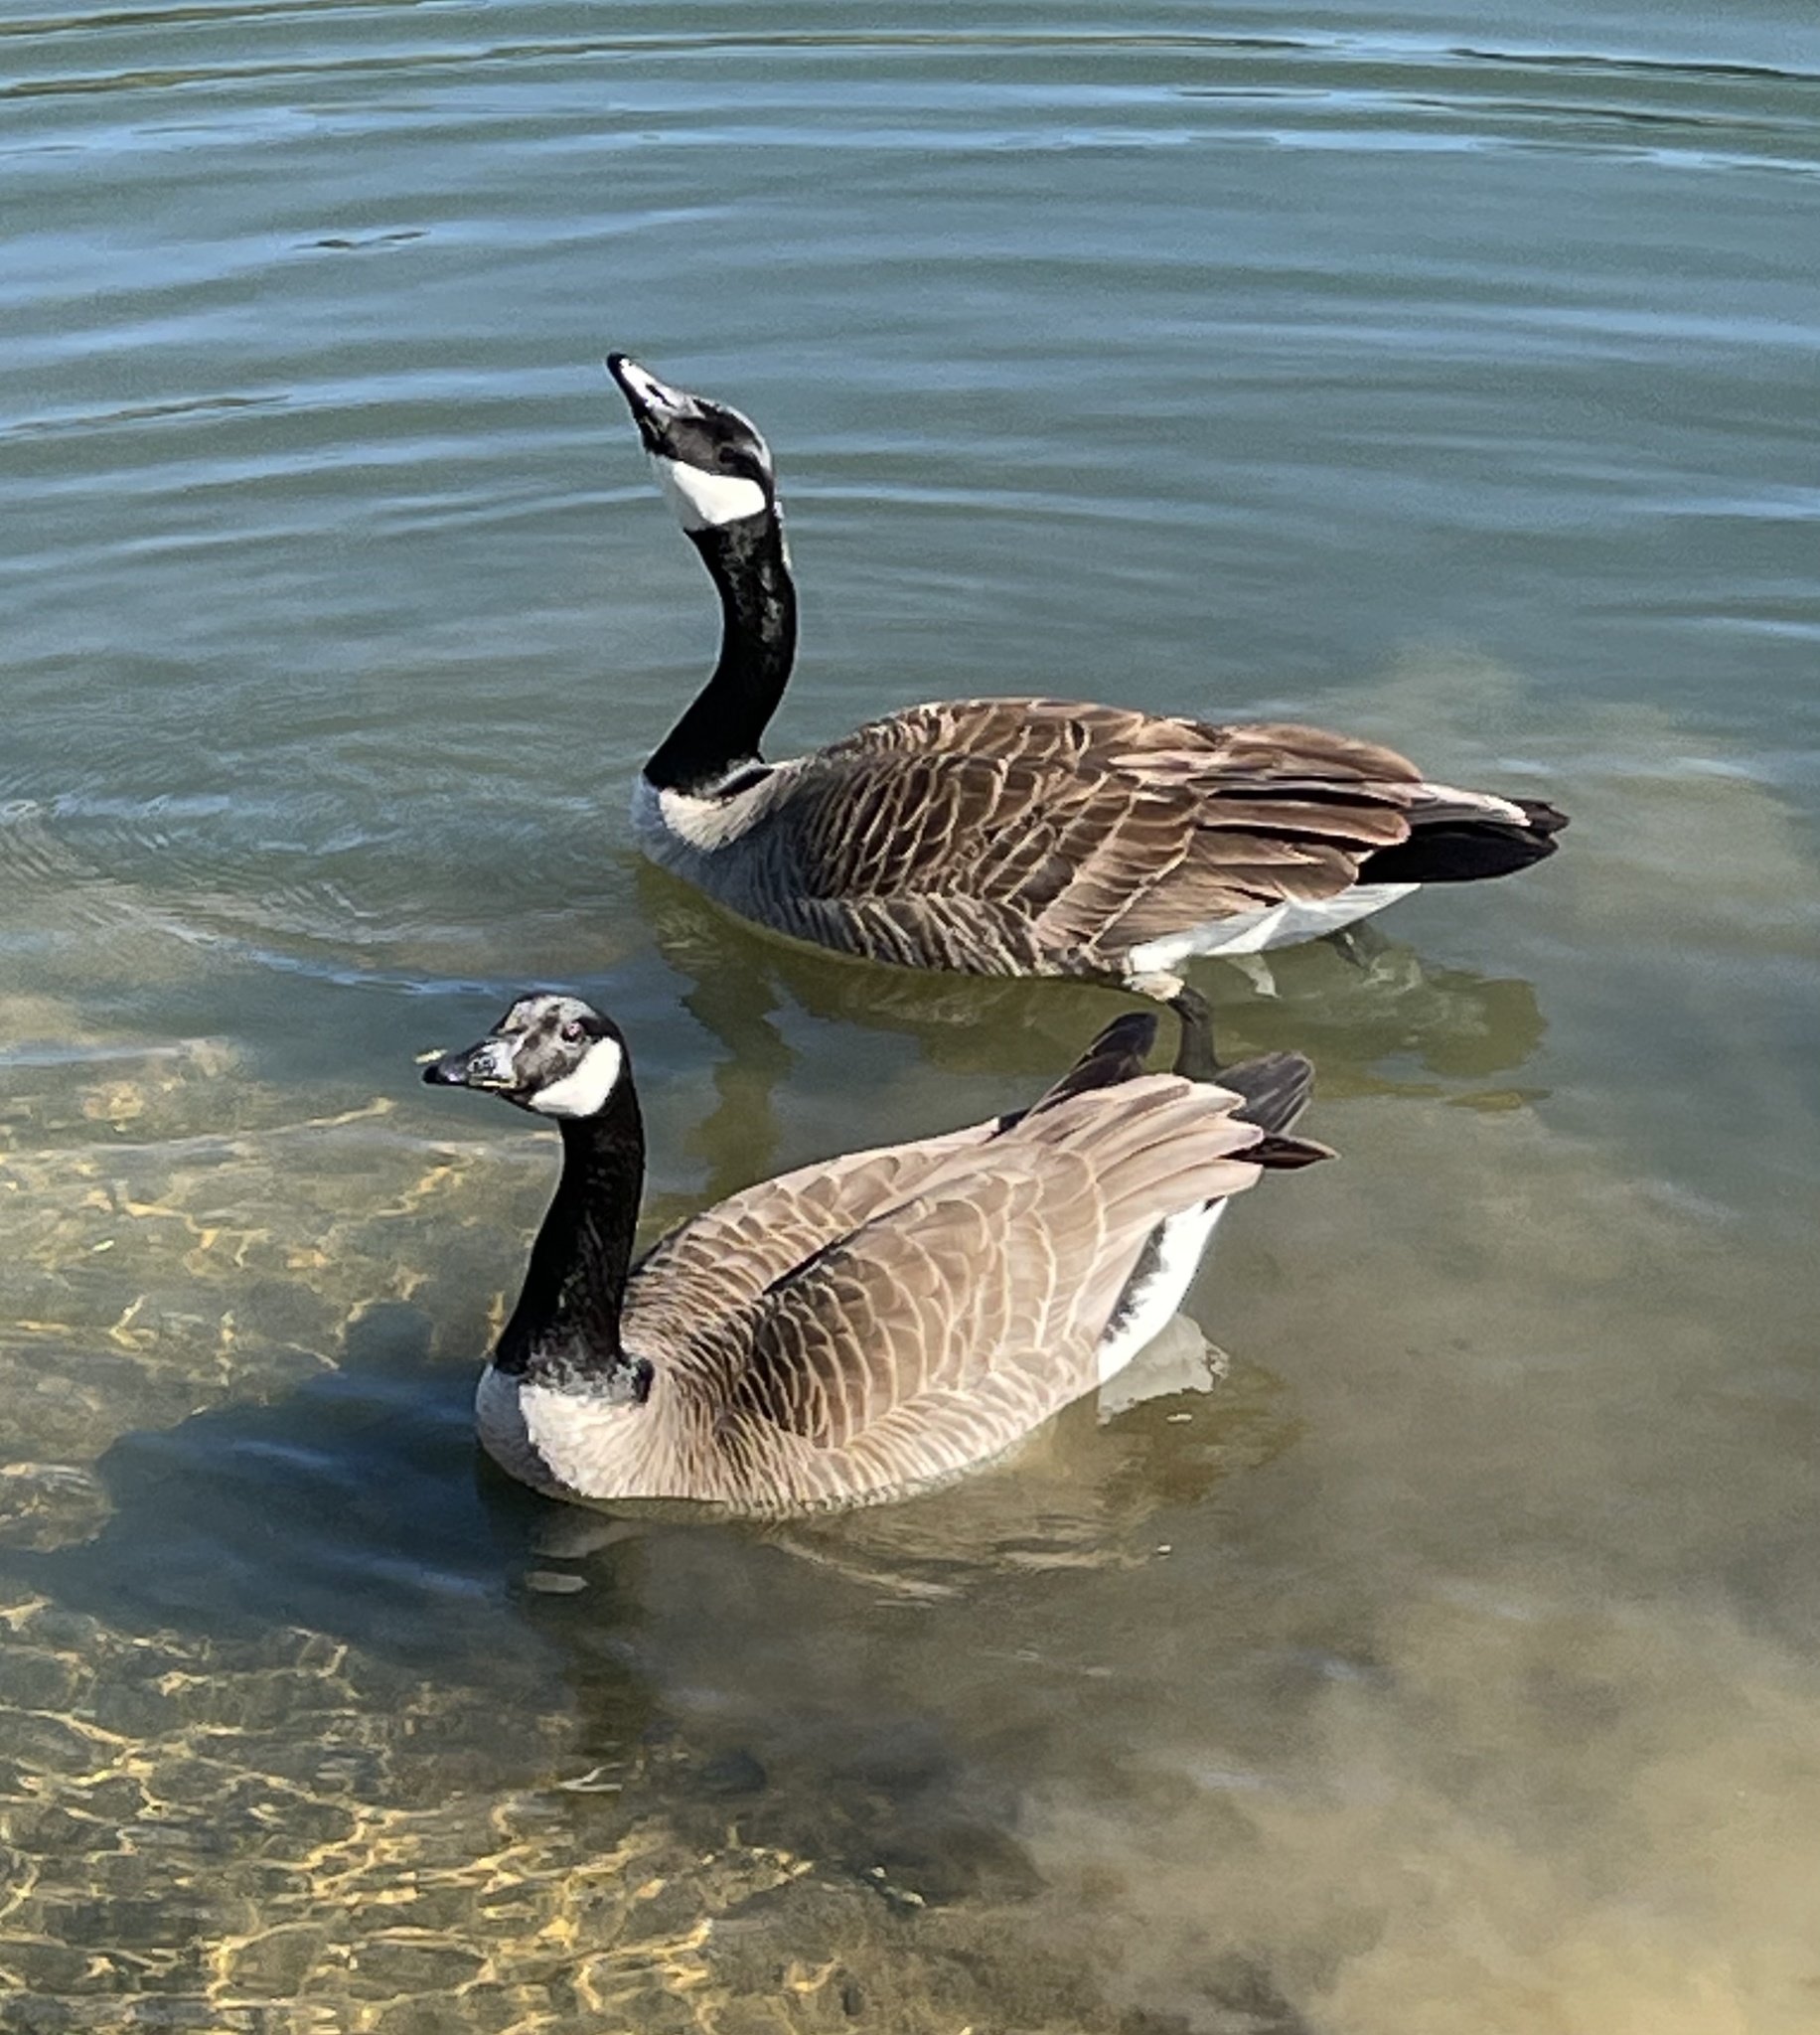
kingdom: Animalia
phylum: Chordata
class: Aves
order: Anseriformes
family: Anatidae
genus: Branta
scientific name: Branta canadensis
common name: Canada goose
